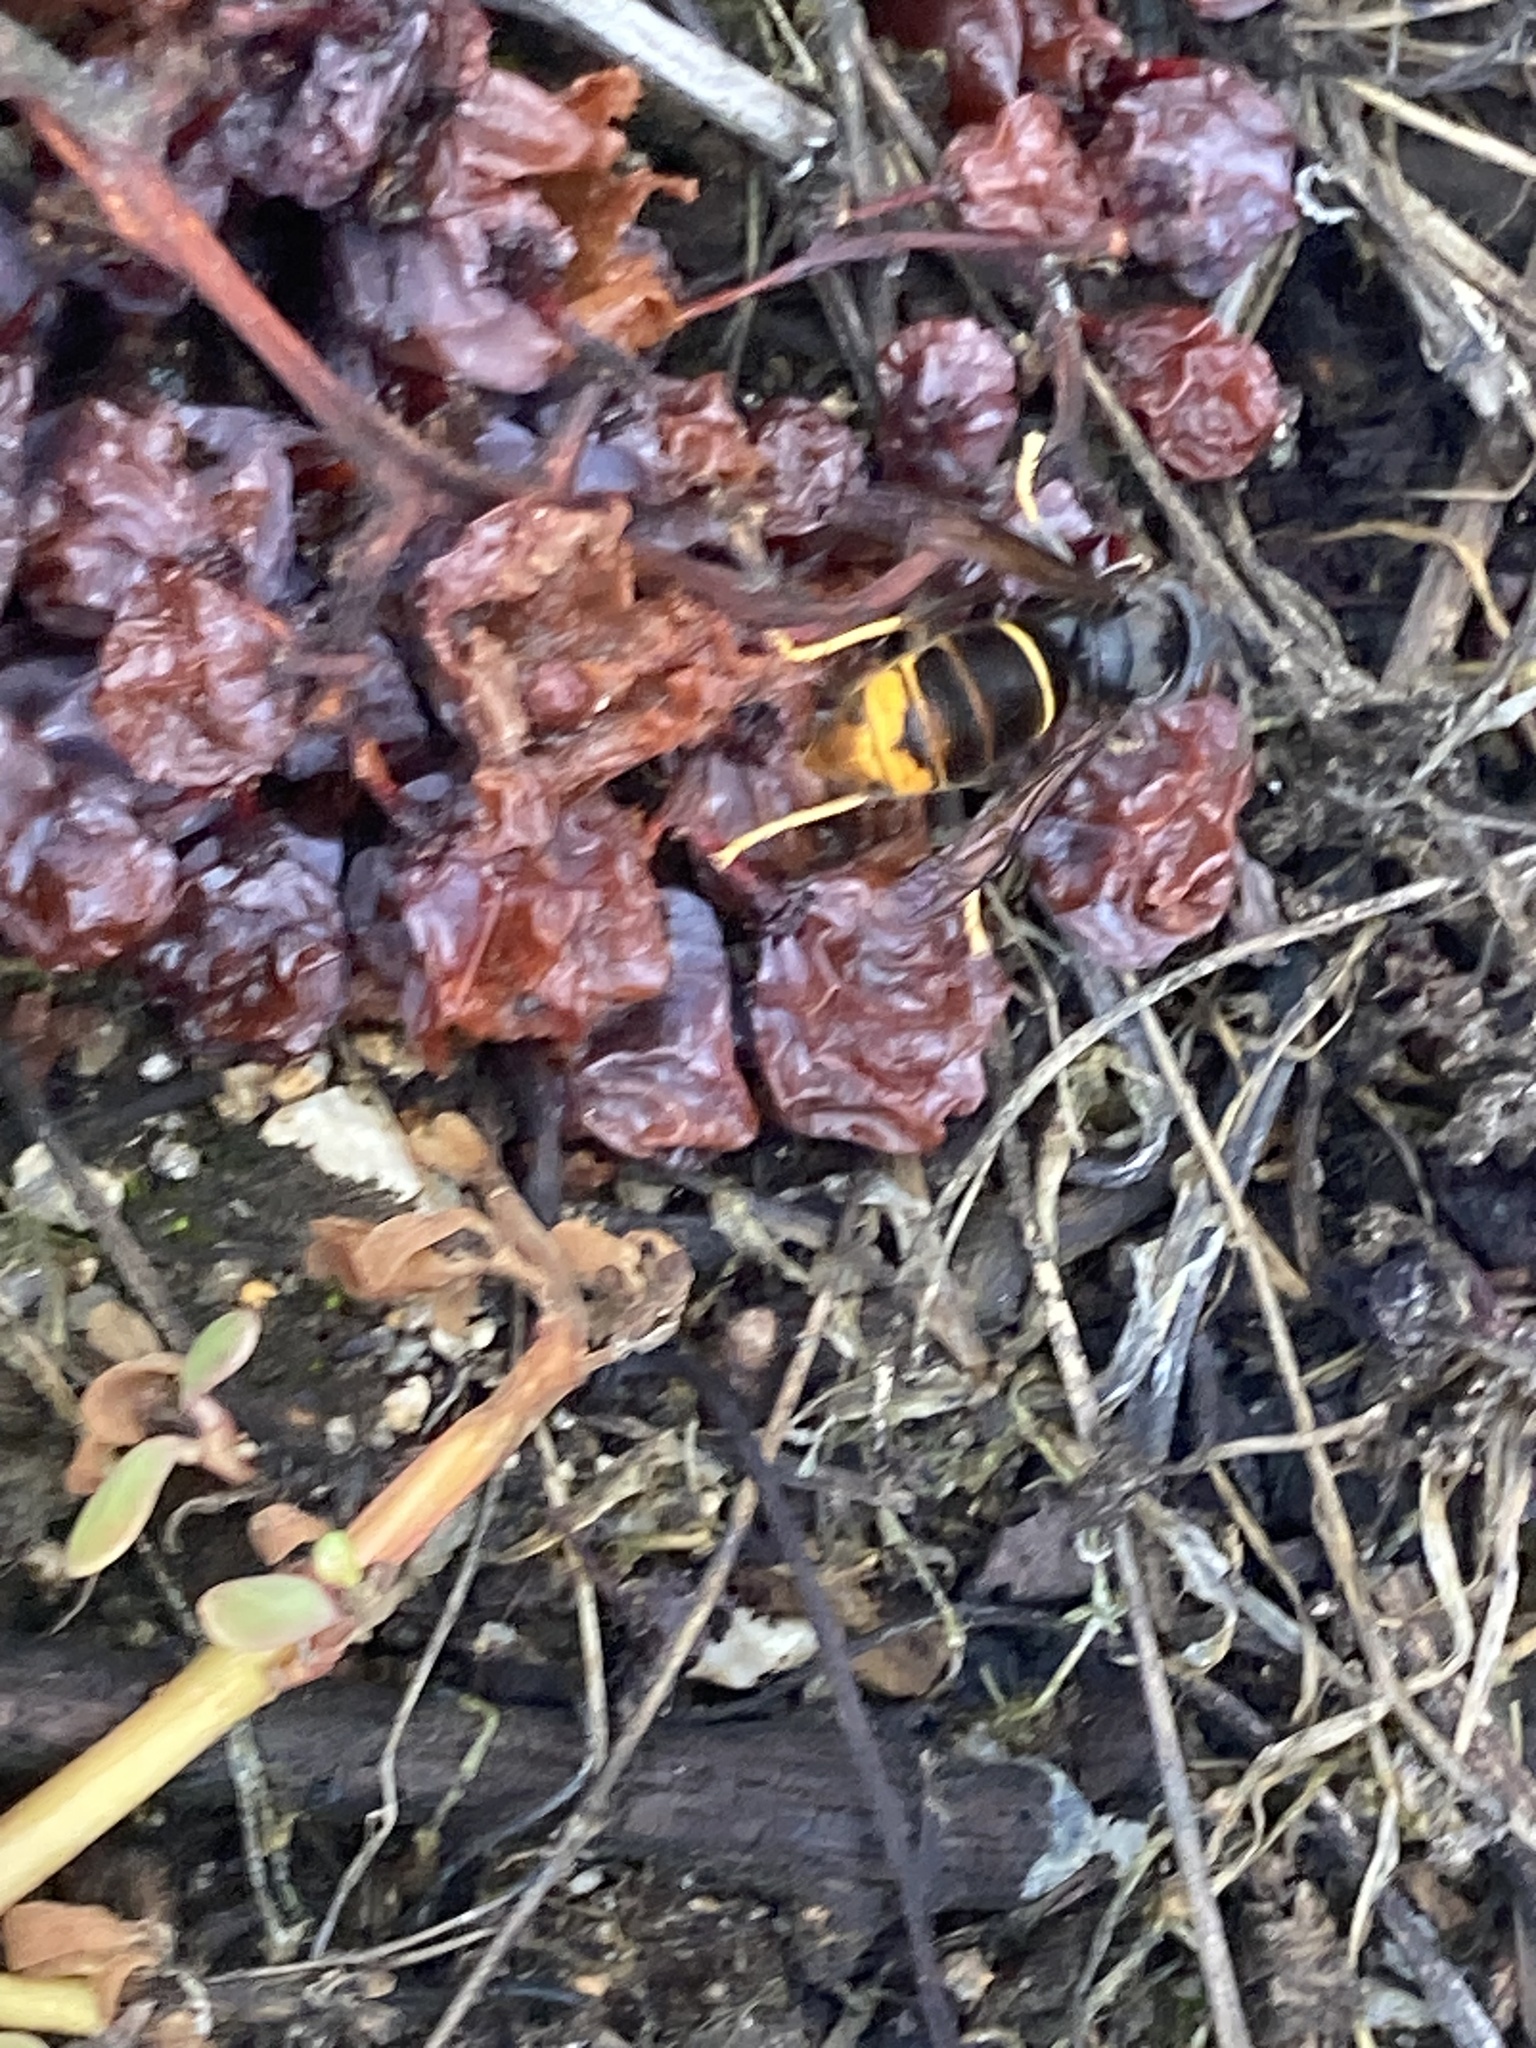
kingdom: Animalia
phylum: Arthropoda
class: Insecta
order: Hymenoptera
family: Vespidae
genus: Vespa
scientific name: Vespa velutina
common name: Asian hornet
